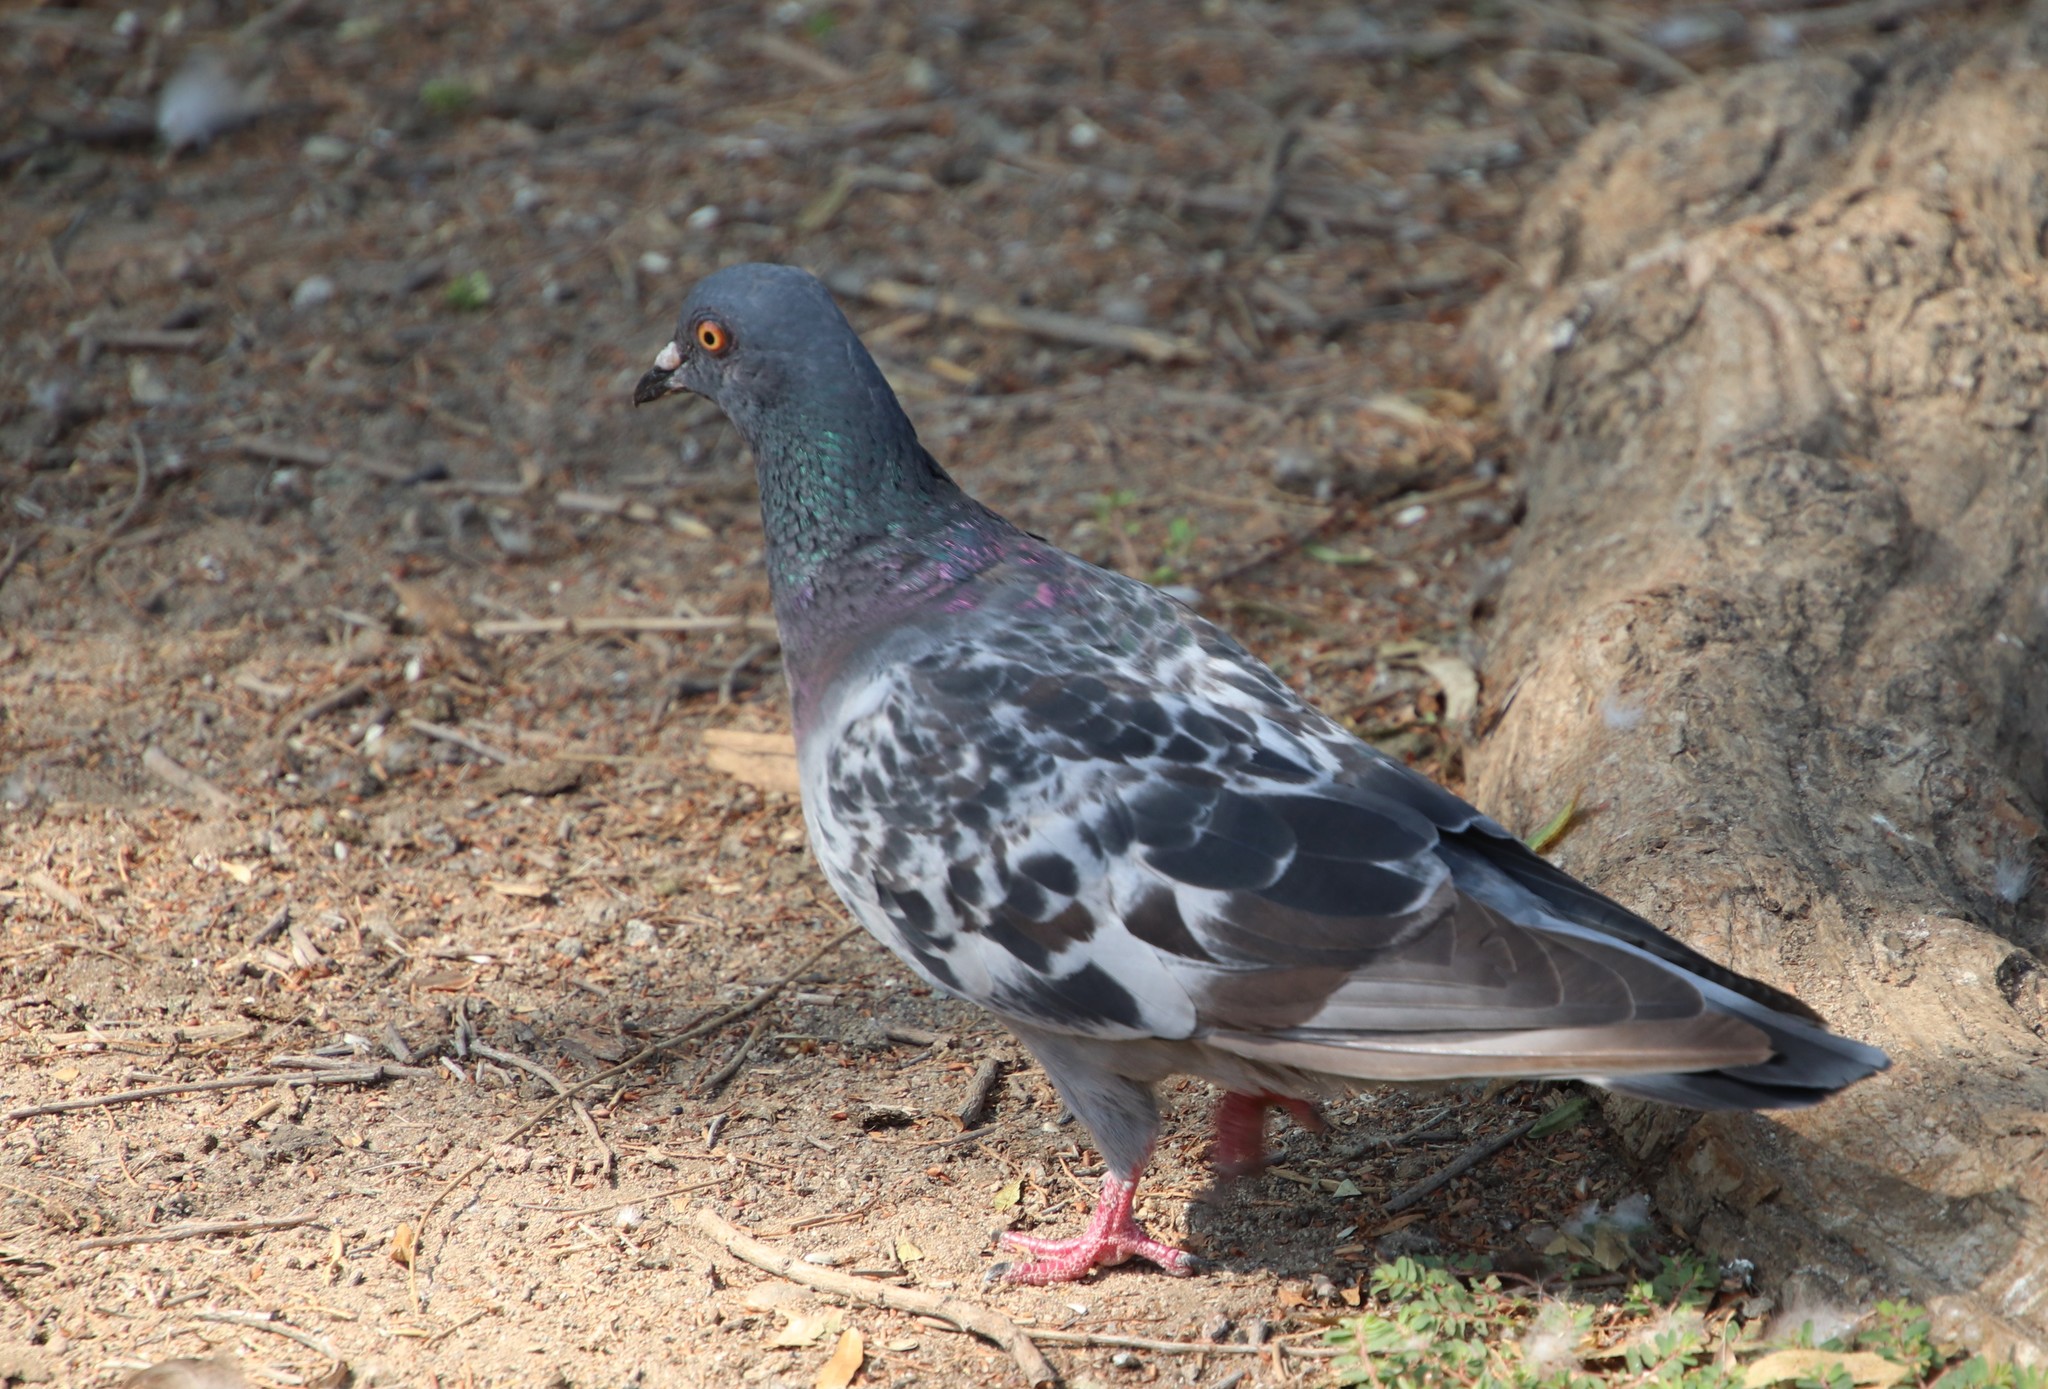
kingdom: Animalia
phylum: Chordata
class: Aves
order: Columbiformes
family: Columbidae
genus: Columba
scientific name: Columba livia
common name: Rock pigeon
